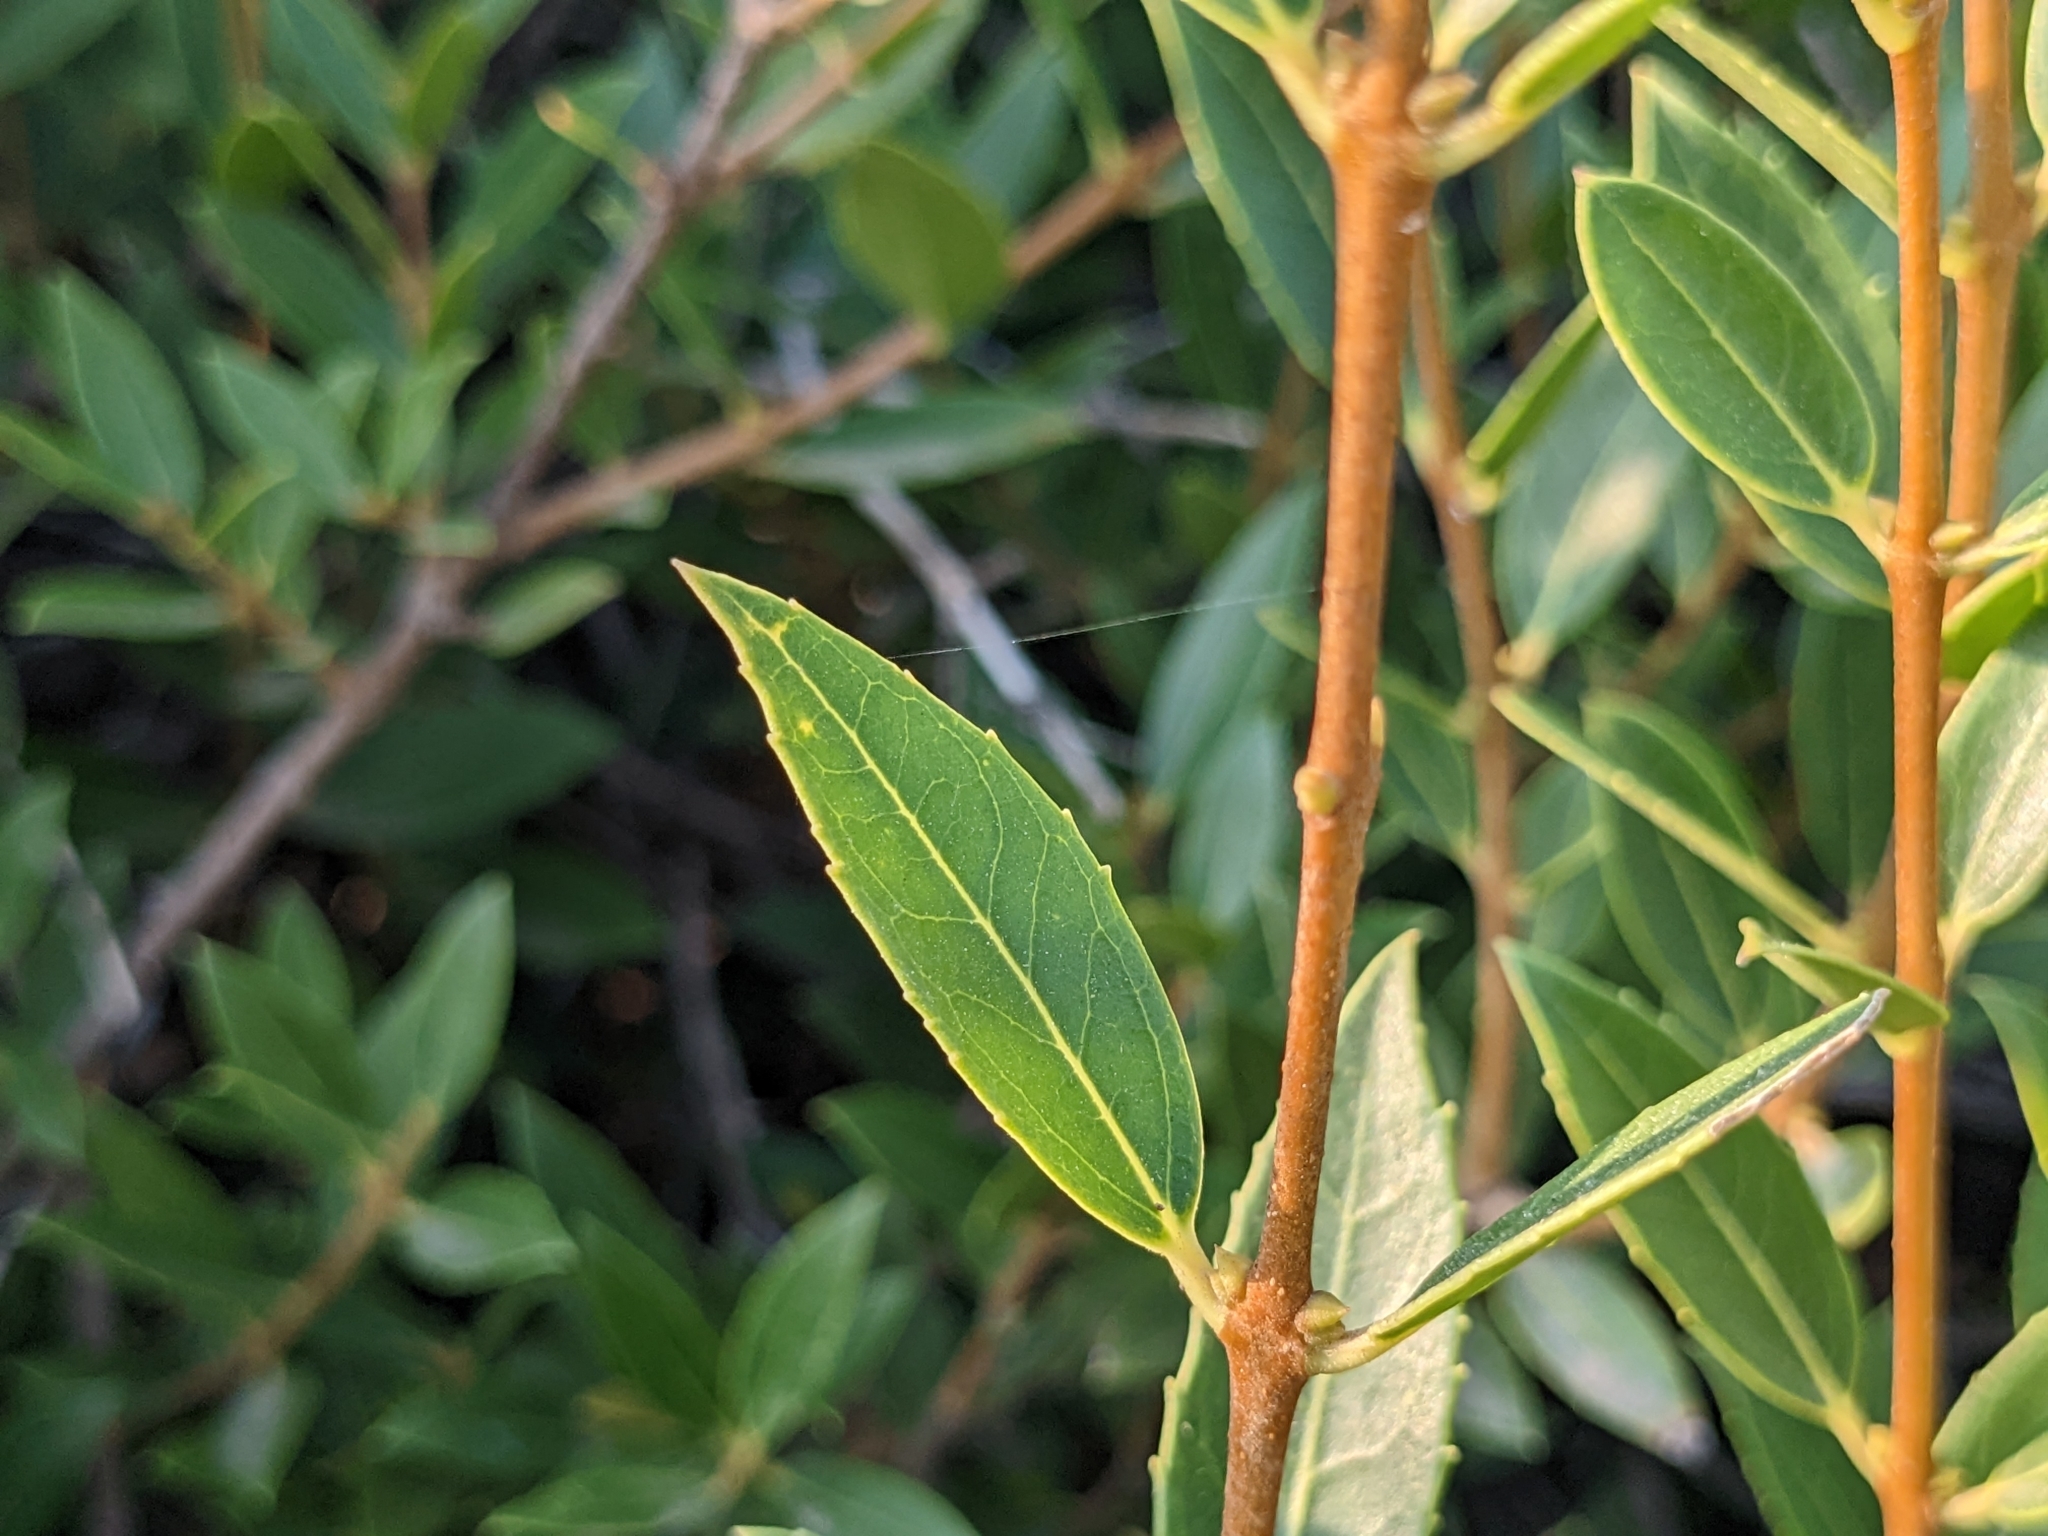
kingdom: Plantae
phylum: Tracheophyta
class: Magnoliopsida
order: Lamiales
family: Oleaceae
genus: Phillyrea
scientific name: Phillyrea latifolia
